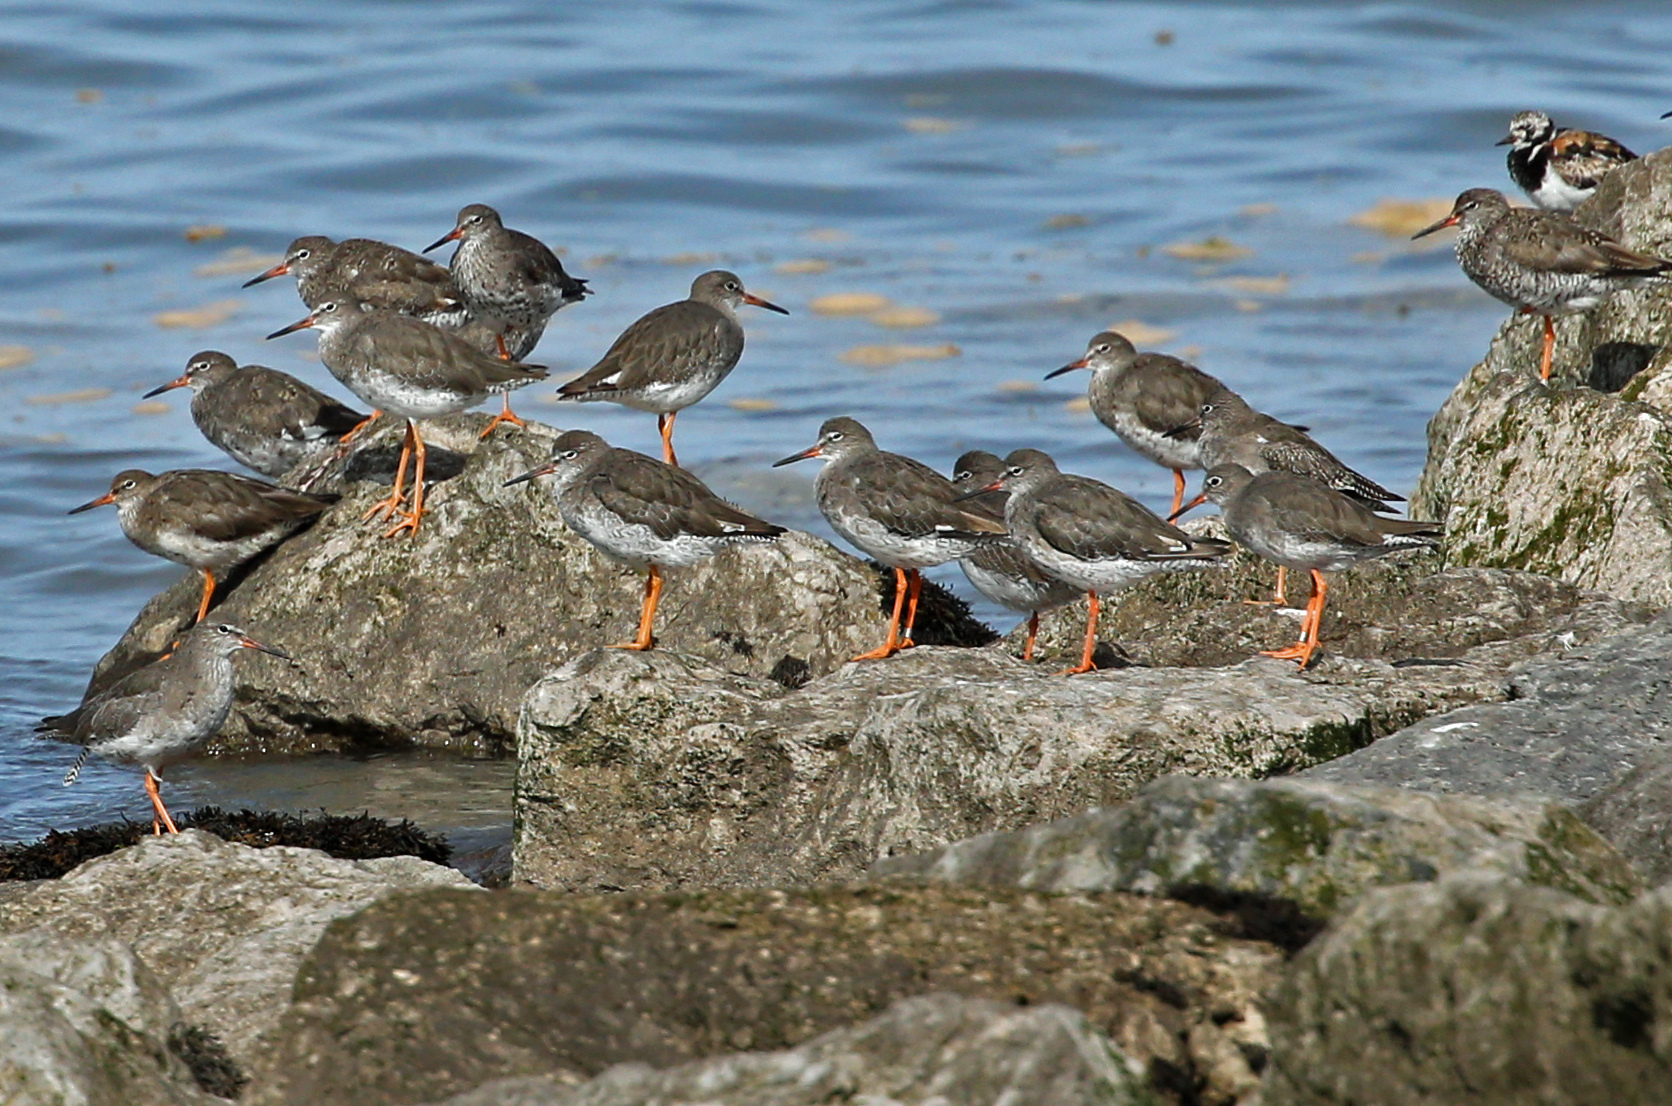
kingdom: Animalia
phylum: Chordata
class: Aves
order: Charadriiformes
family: Scolopacidae
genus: Tringa
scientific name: Tringa totanus
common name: Common redshank
